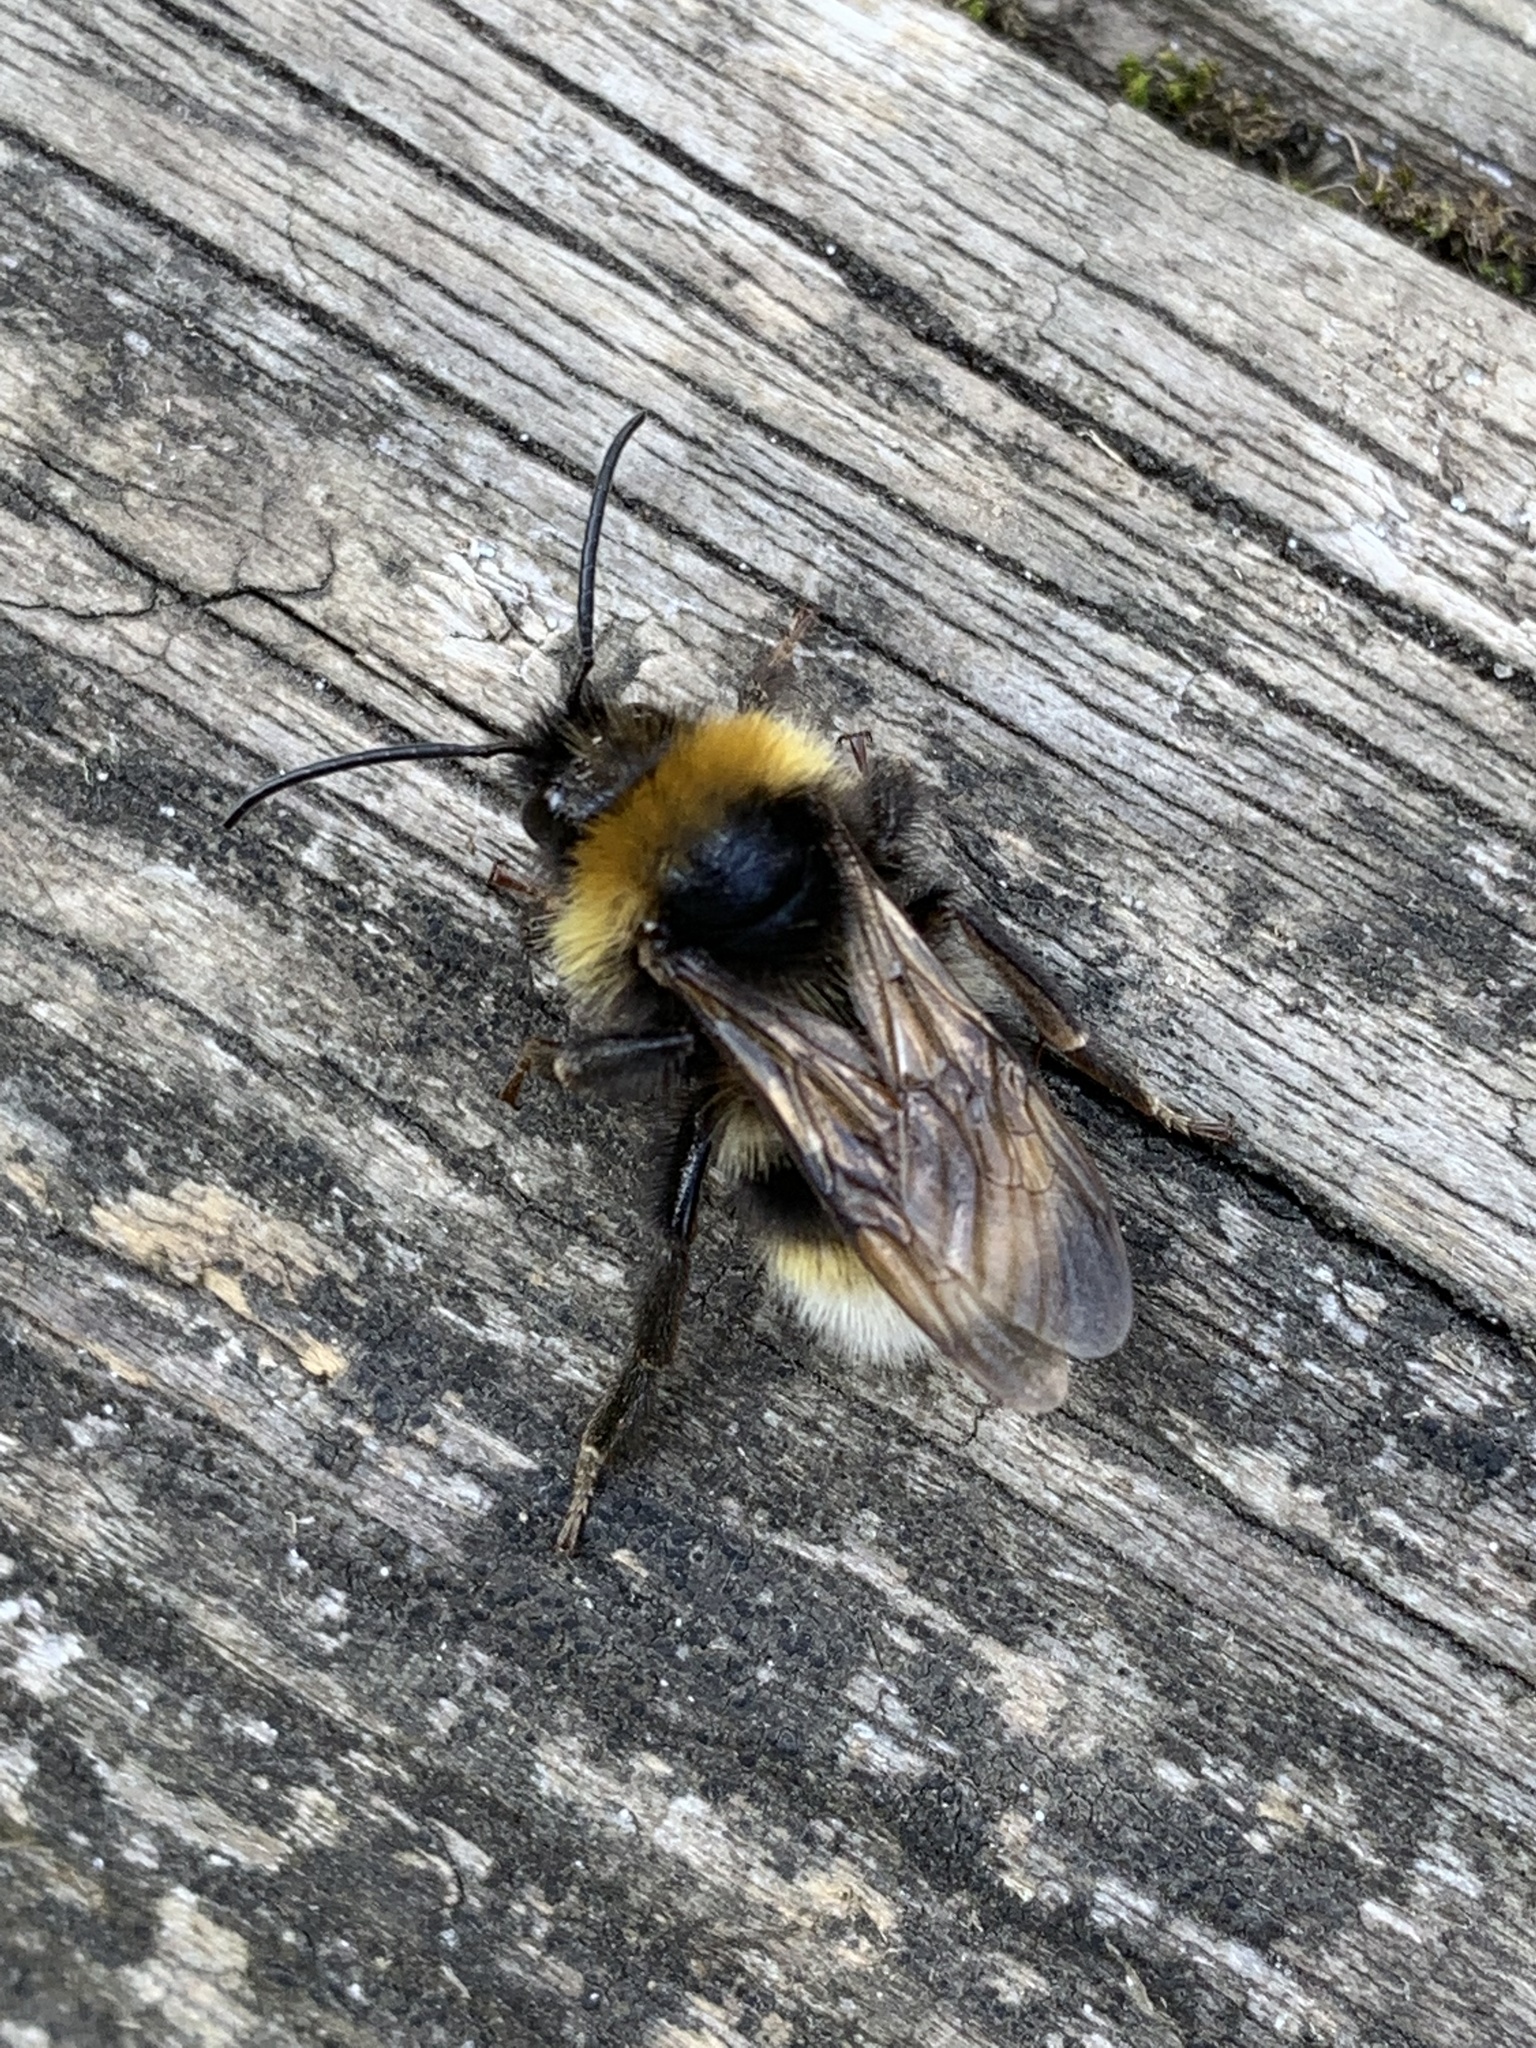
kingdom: Animalia
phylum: Arthropoda
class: Insecta
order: Hymenoptera
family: Apidae
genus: Bombus
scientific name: Bombus vestalis
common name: Vestal cuckoo bee
